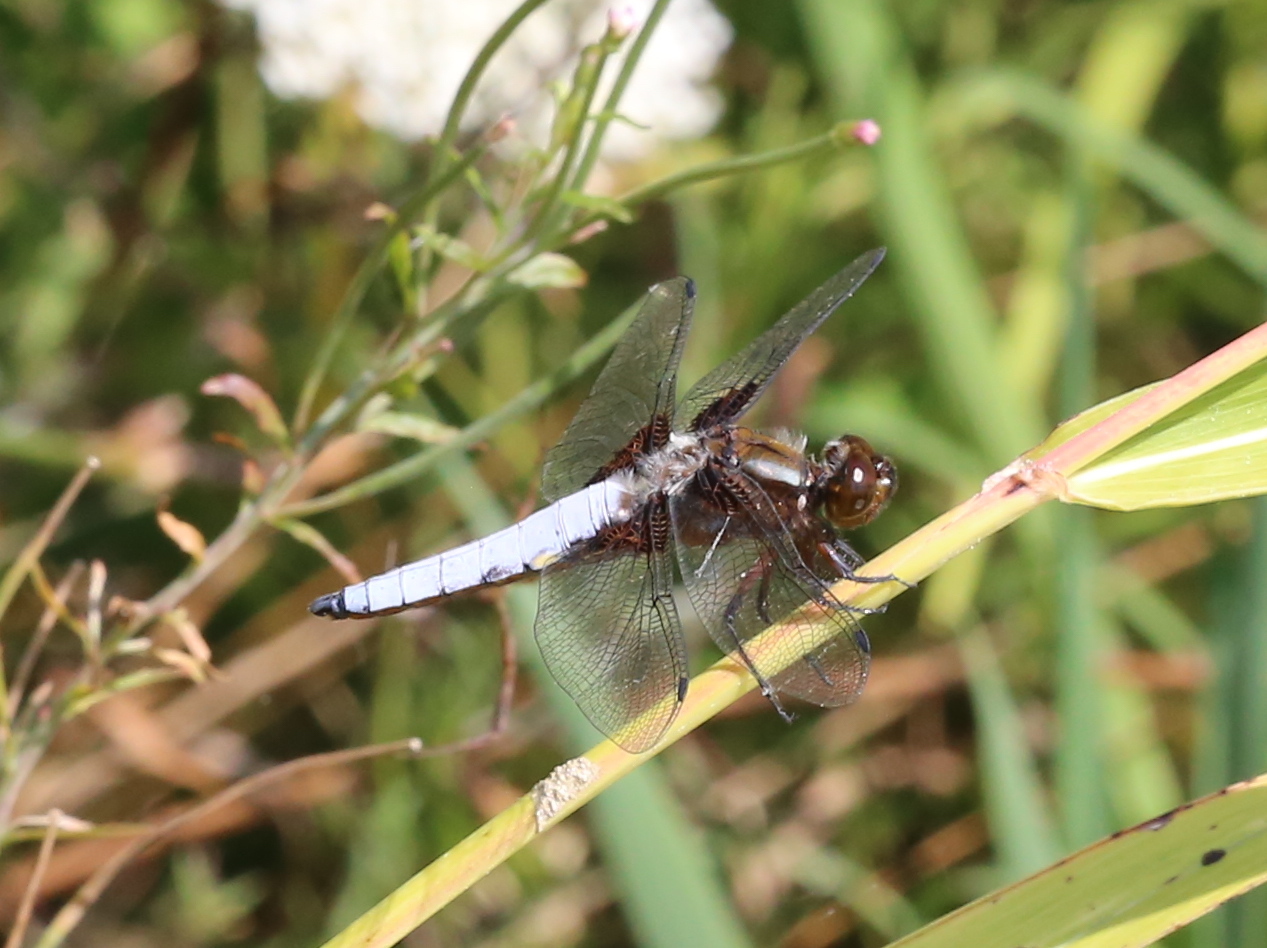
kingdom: Animalia
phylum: Arthropoda
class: Insecta
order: Odonata
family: Libellulidae
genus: Libellula
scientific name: Libellula depressa
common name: Broad-bodied chaser
